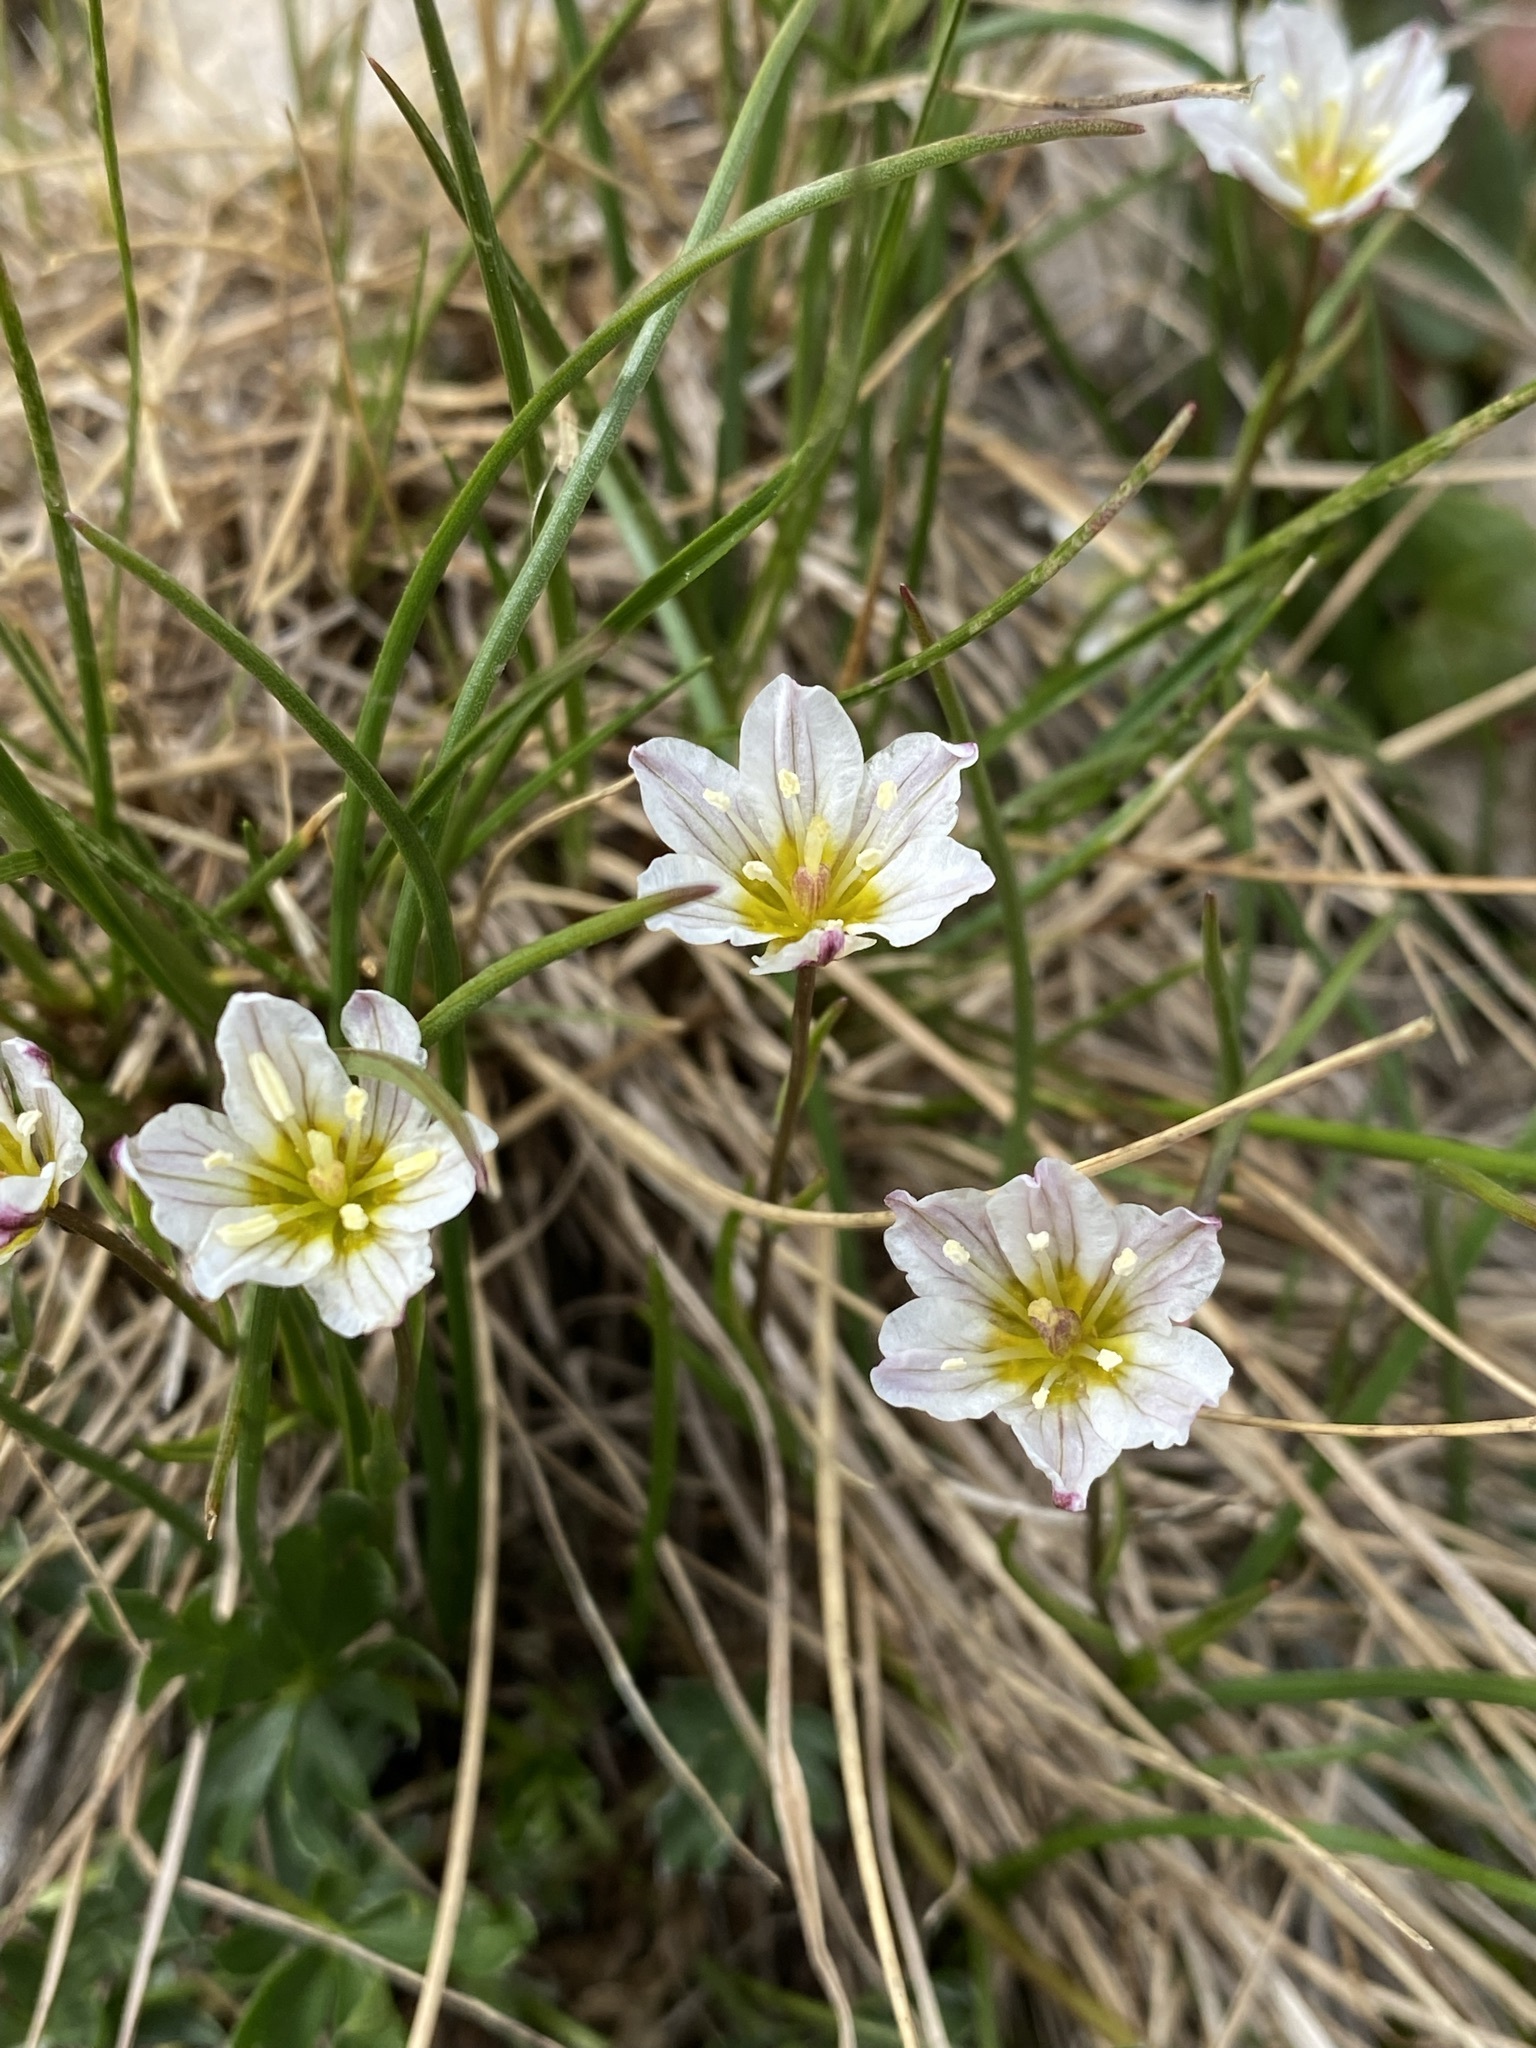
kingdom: Plantae
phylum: Tracheophyta
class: Liliopsida
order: Liliales
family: Liliaceae
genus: Gagea
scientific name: Gagea serotina
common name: Snowdon lily
